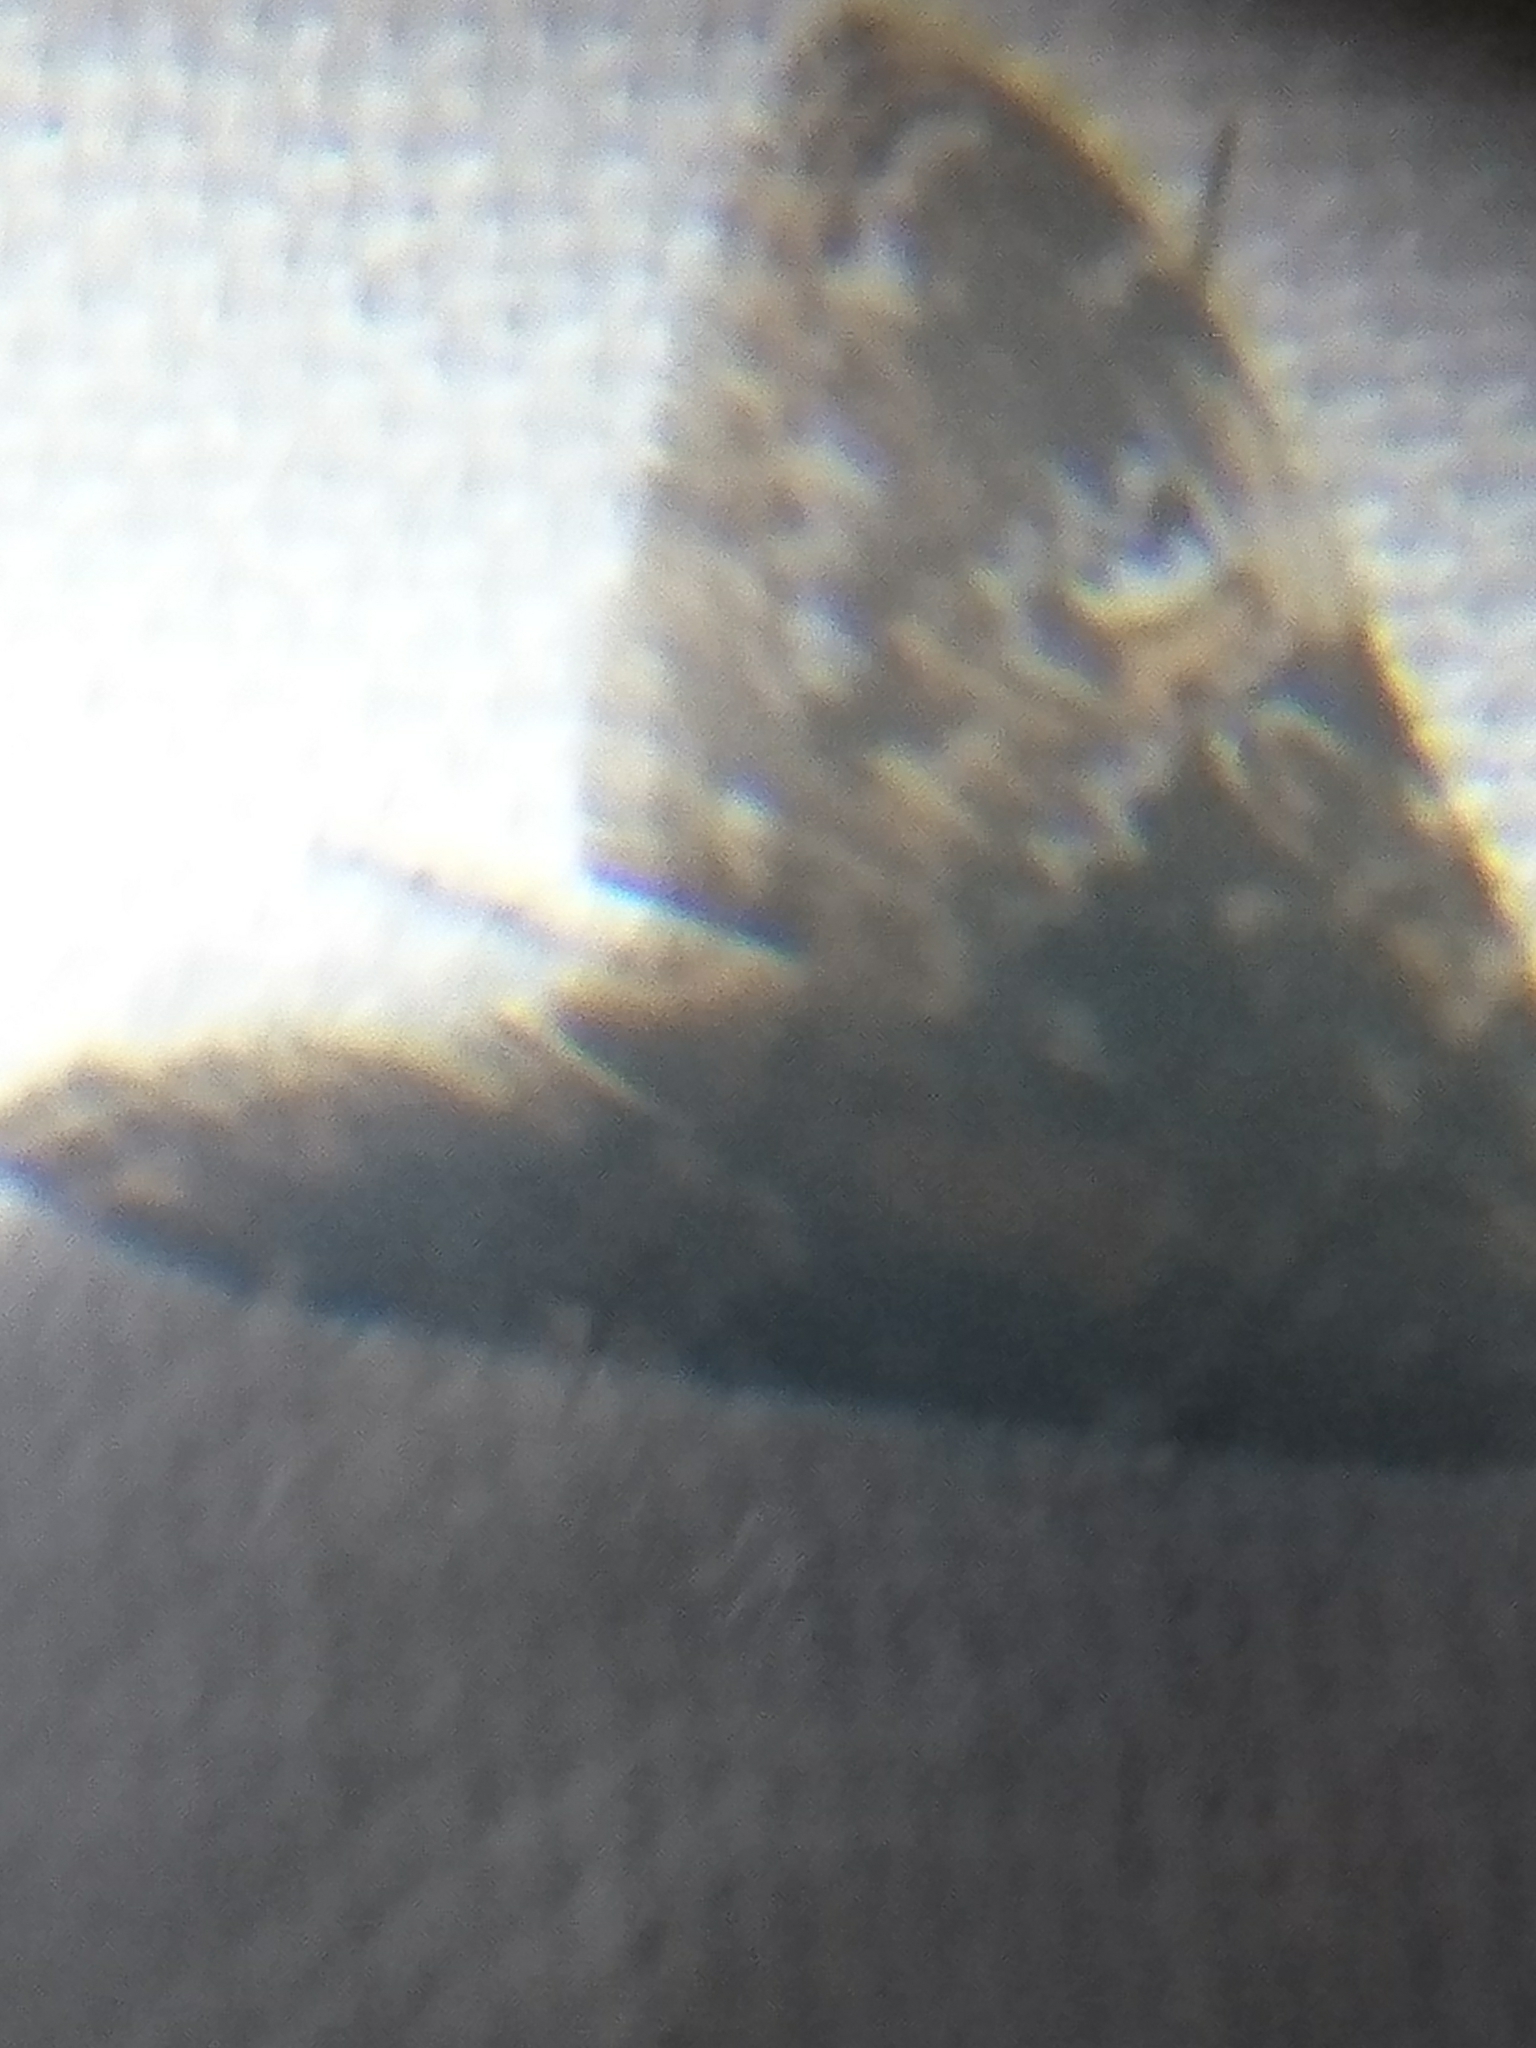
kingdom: Animalia
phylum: Arthropoda
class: Insecta
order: Lepidoptera
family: Crambidae
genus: Elophila
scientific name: Elophila obliteralis
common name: Waterlily leafcutter moth
